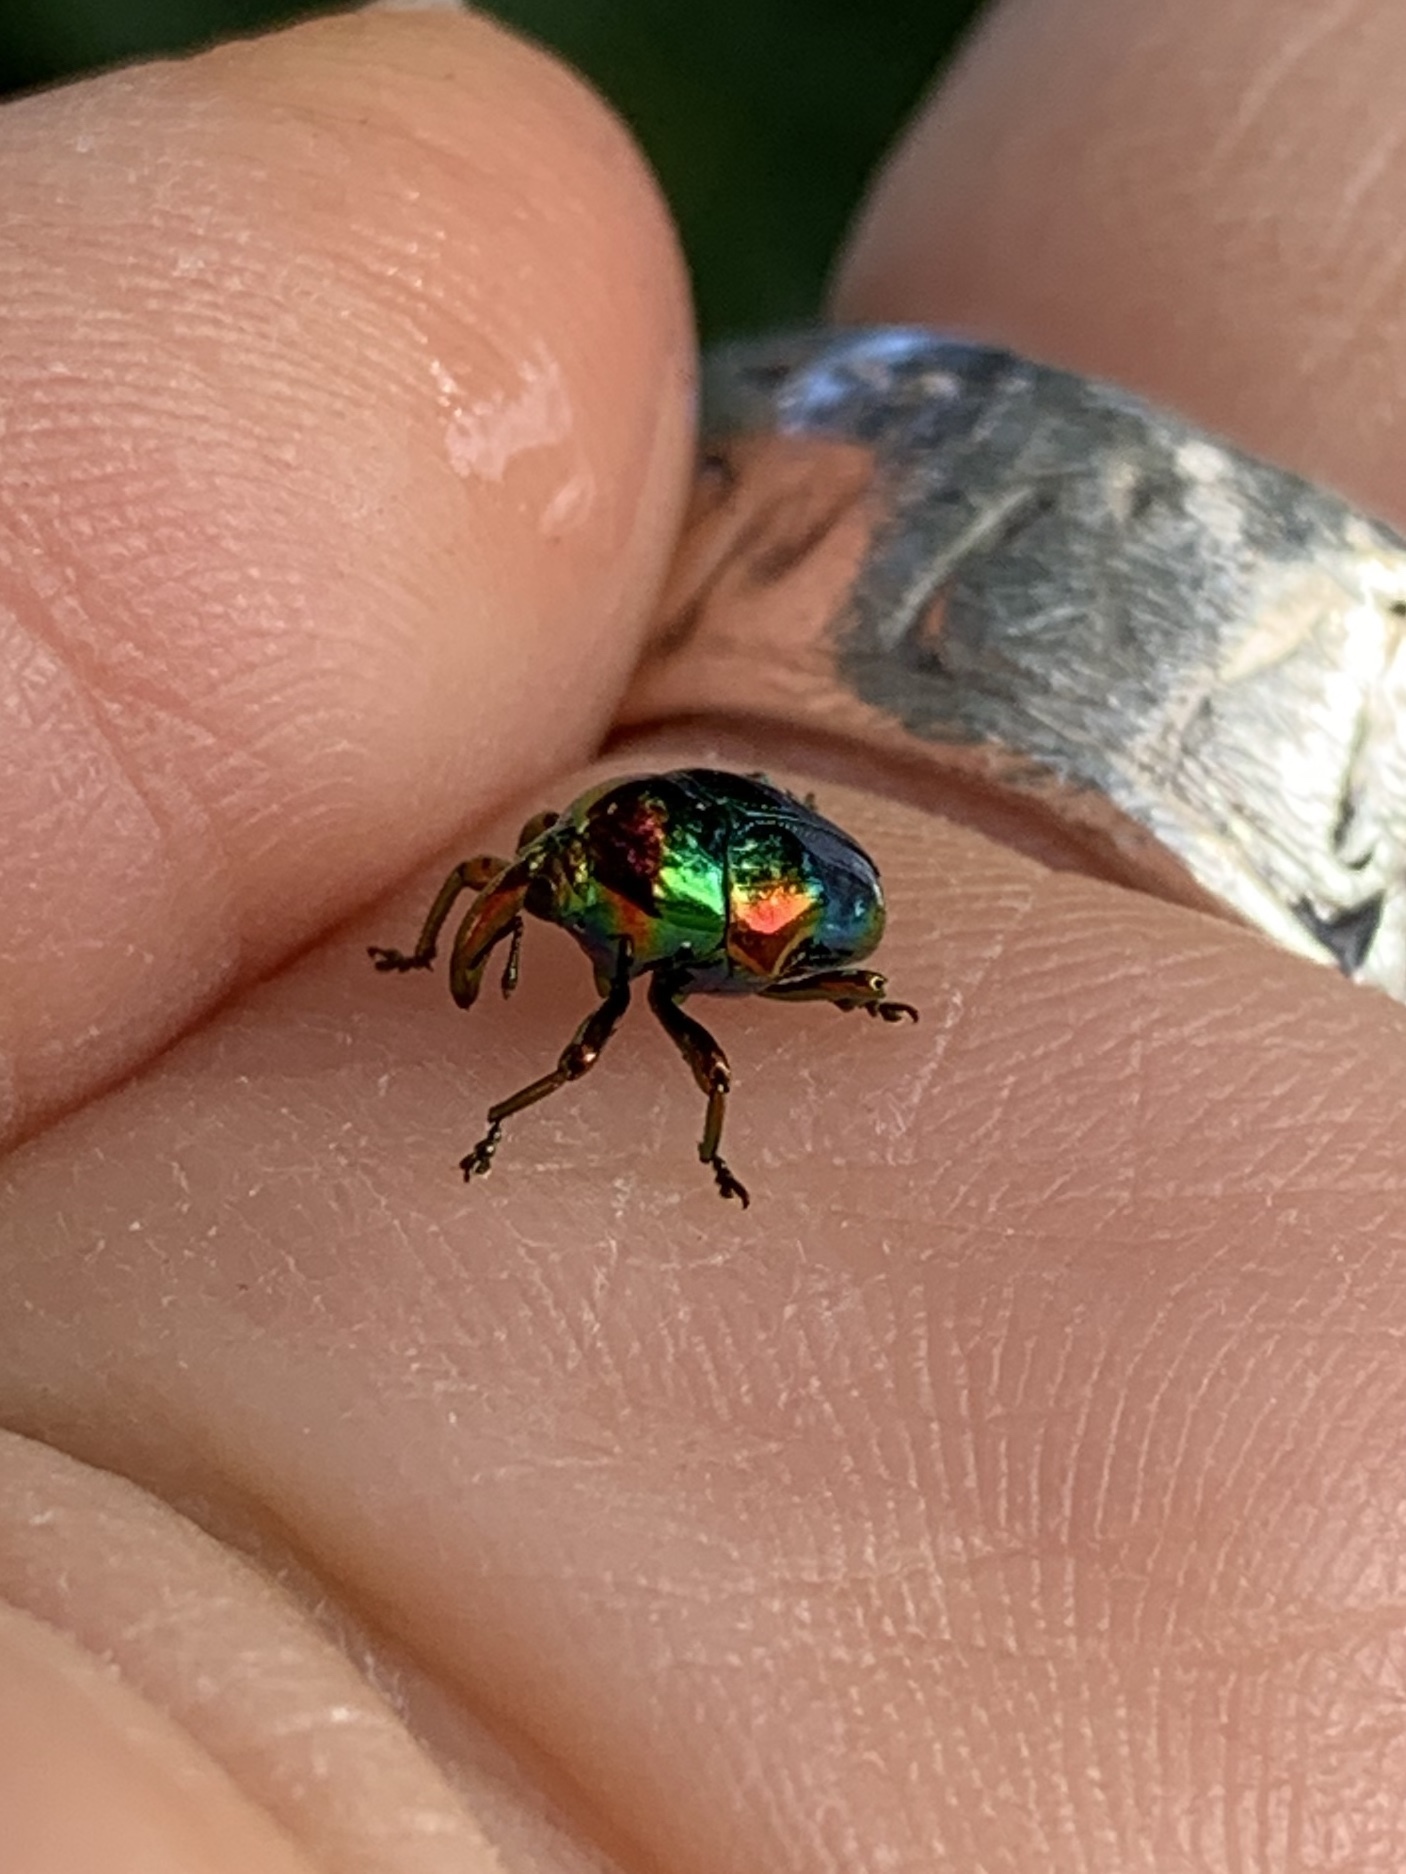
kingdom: Animalia
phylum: Arthropoda
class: Insecta
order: Coleoptera
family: Eurhynchidae
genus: Eurhinus
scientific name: Eurhinus magnificus
